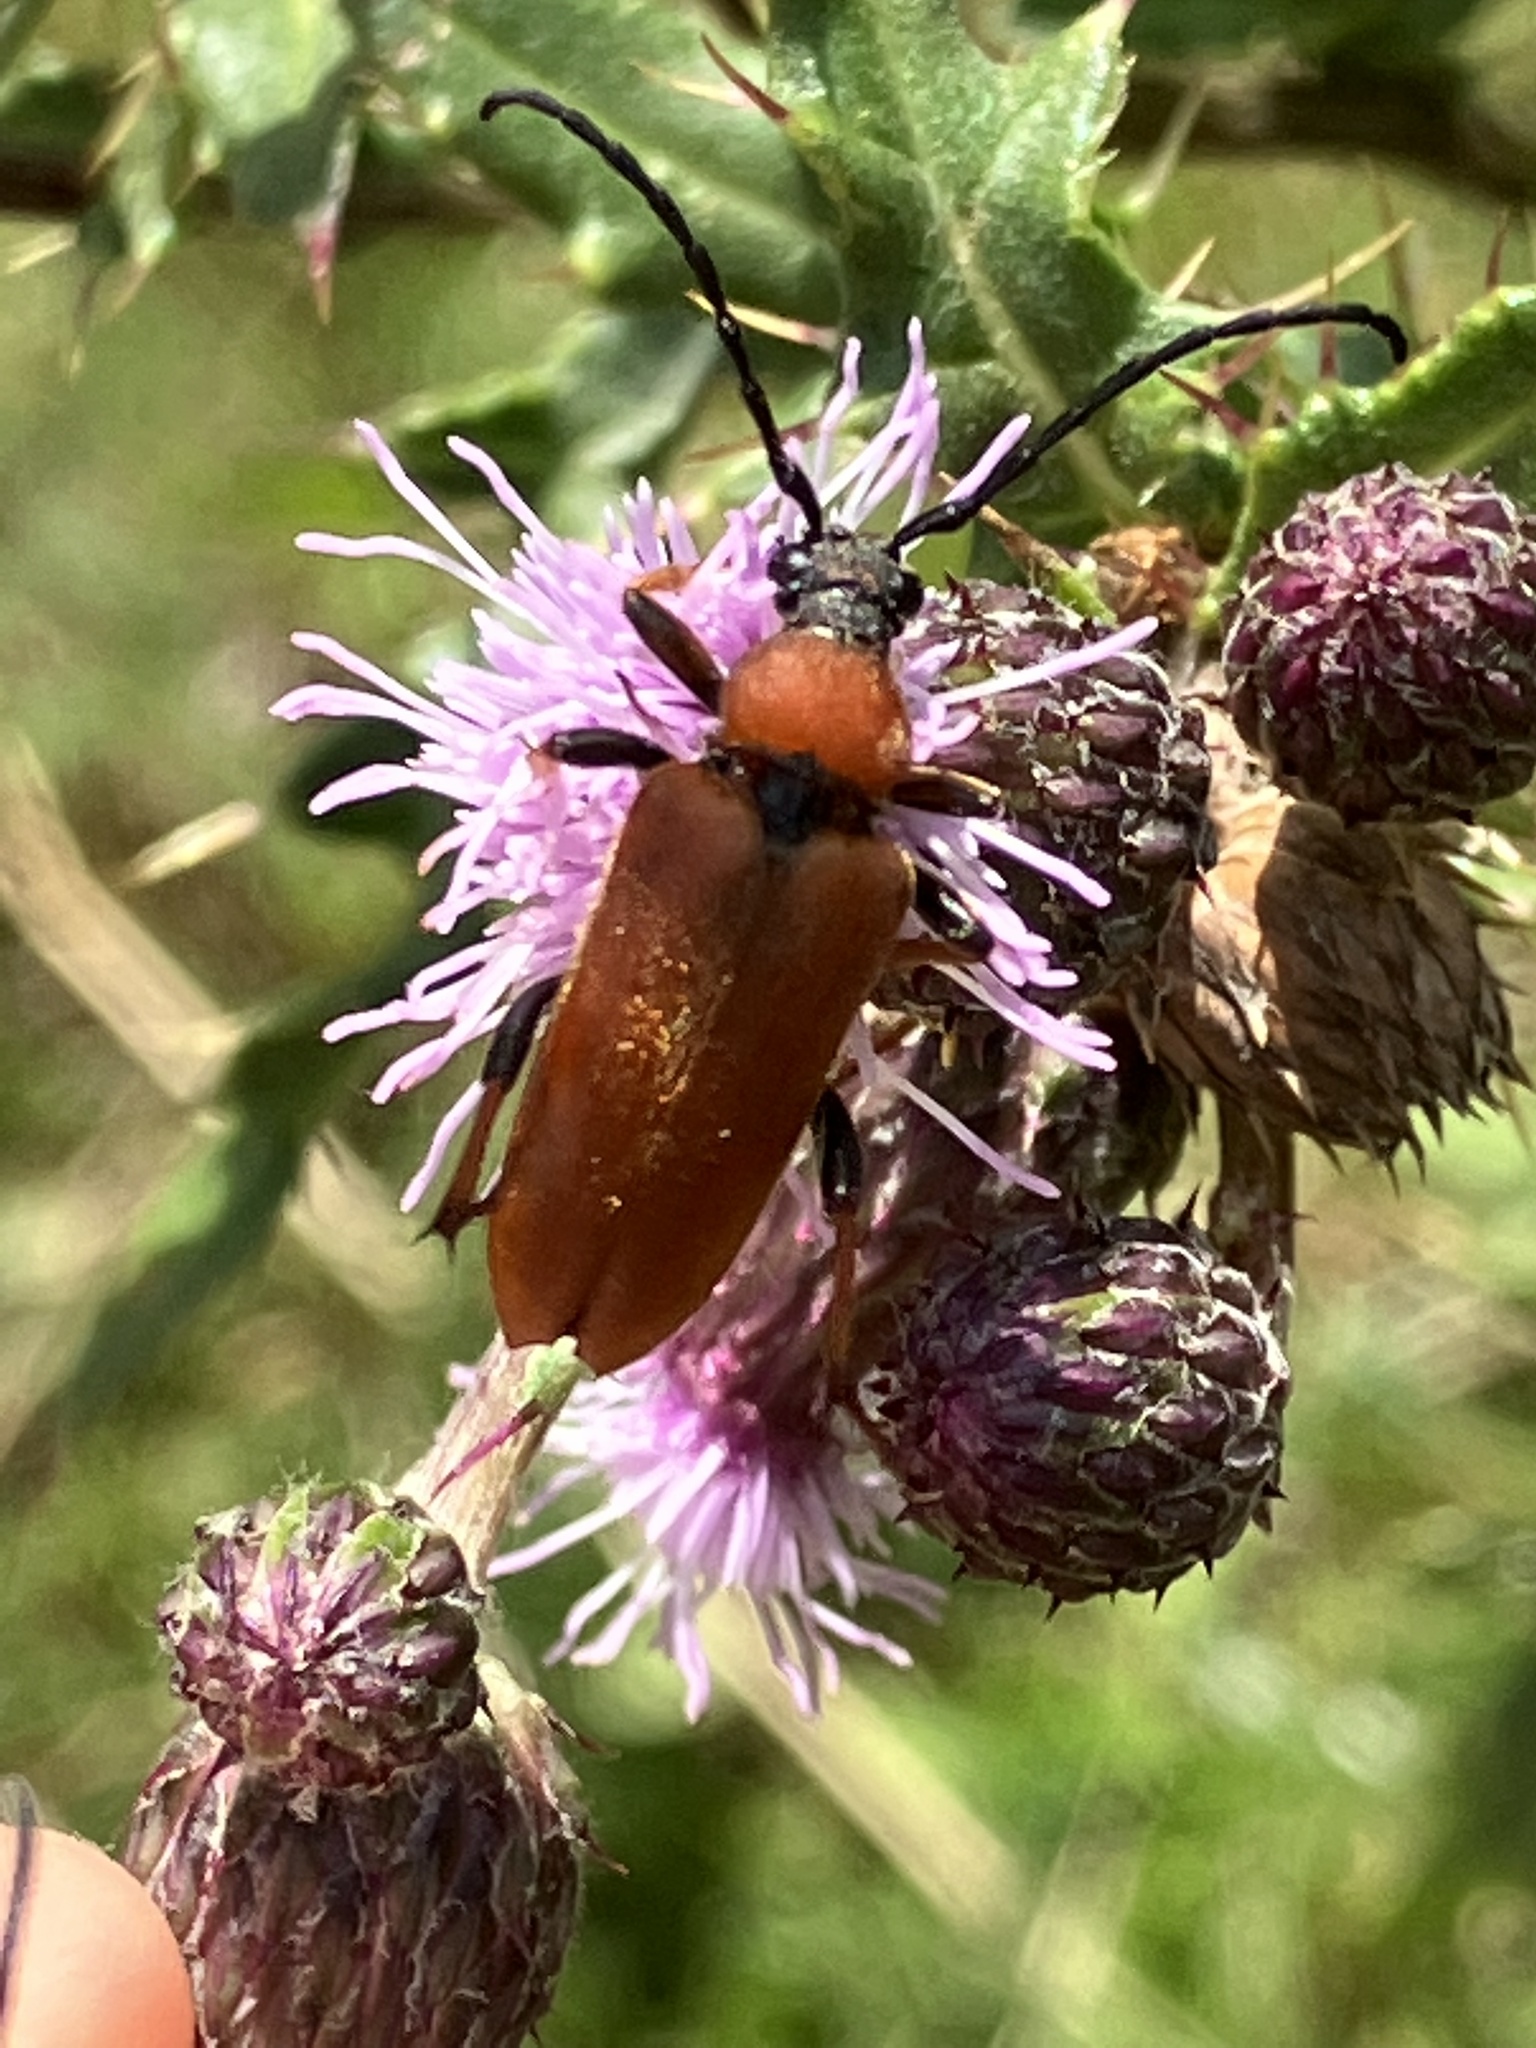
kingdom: Animalia
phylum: Arthropoda
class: Insecta
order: Coleoptera
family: Cerambycidae
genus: Stictoleptura
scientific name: Stictoleptura rubra
